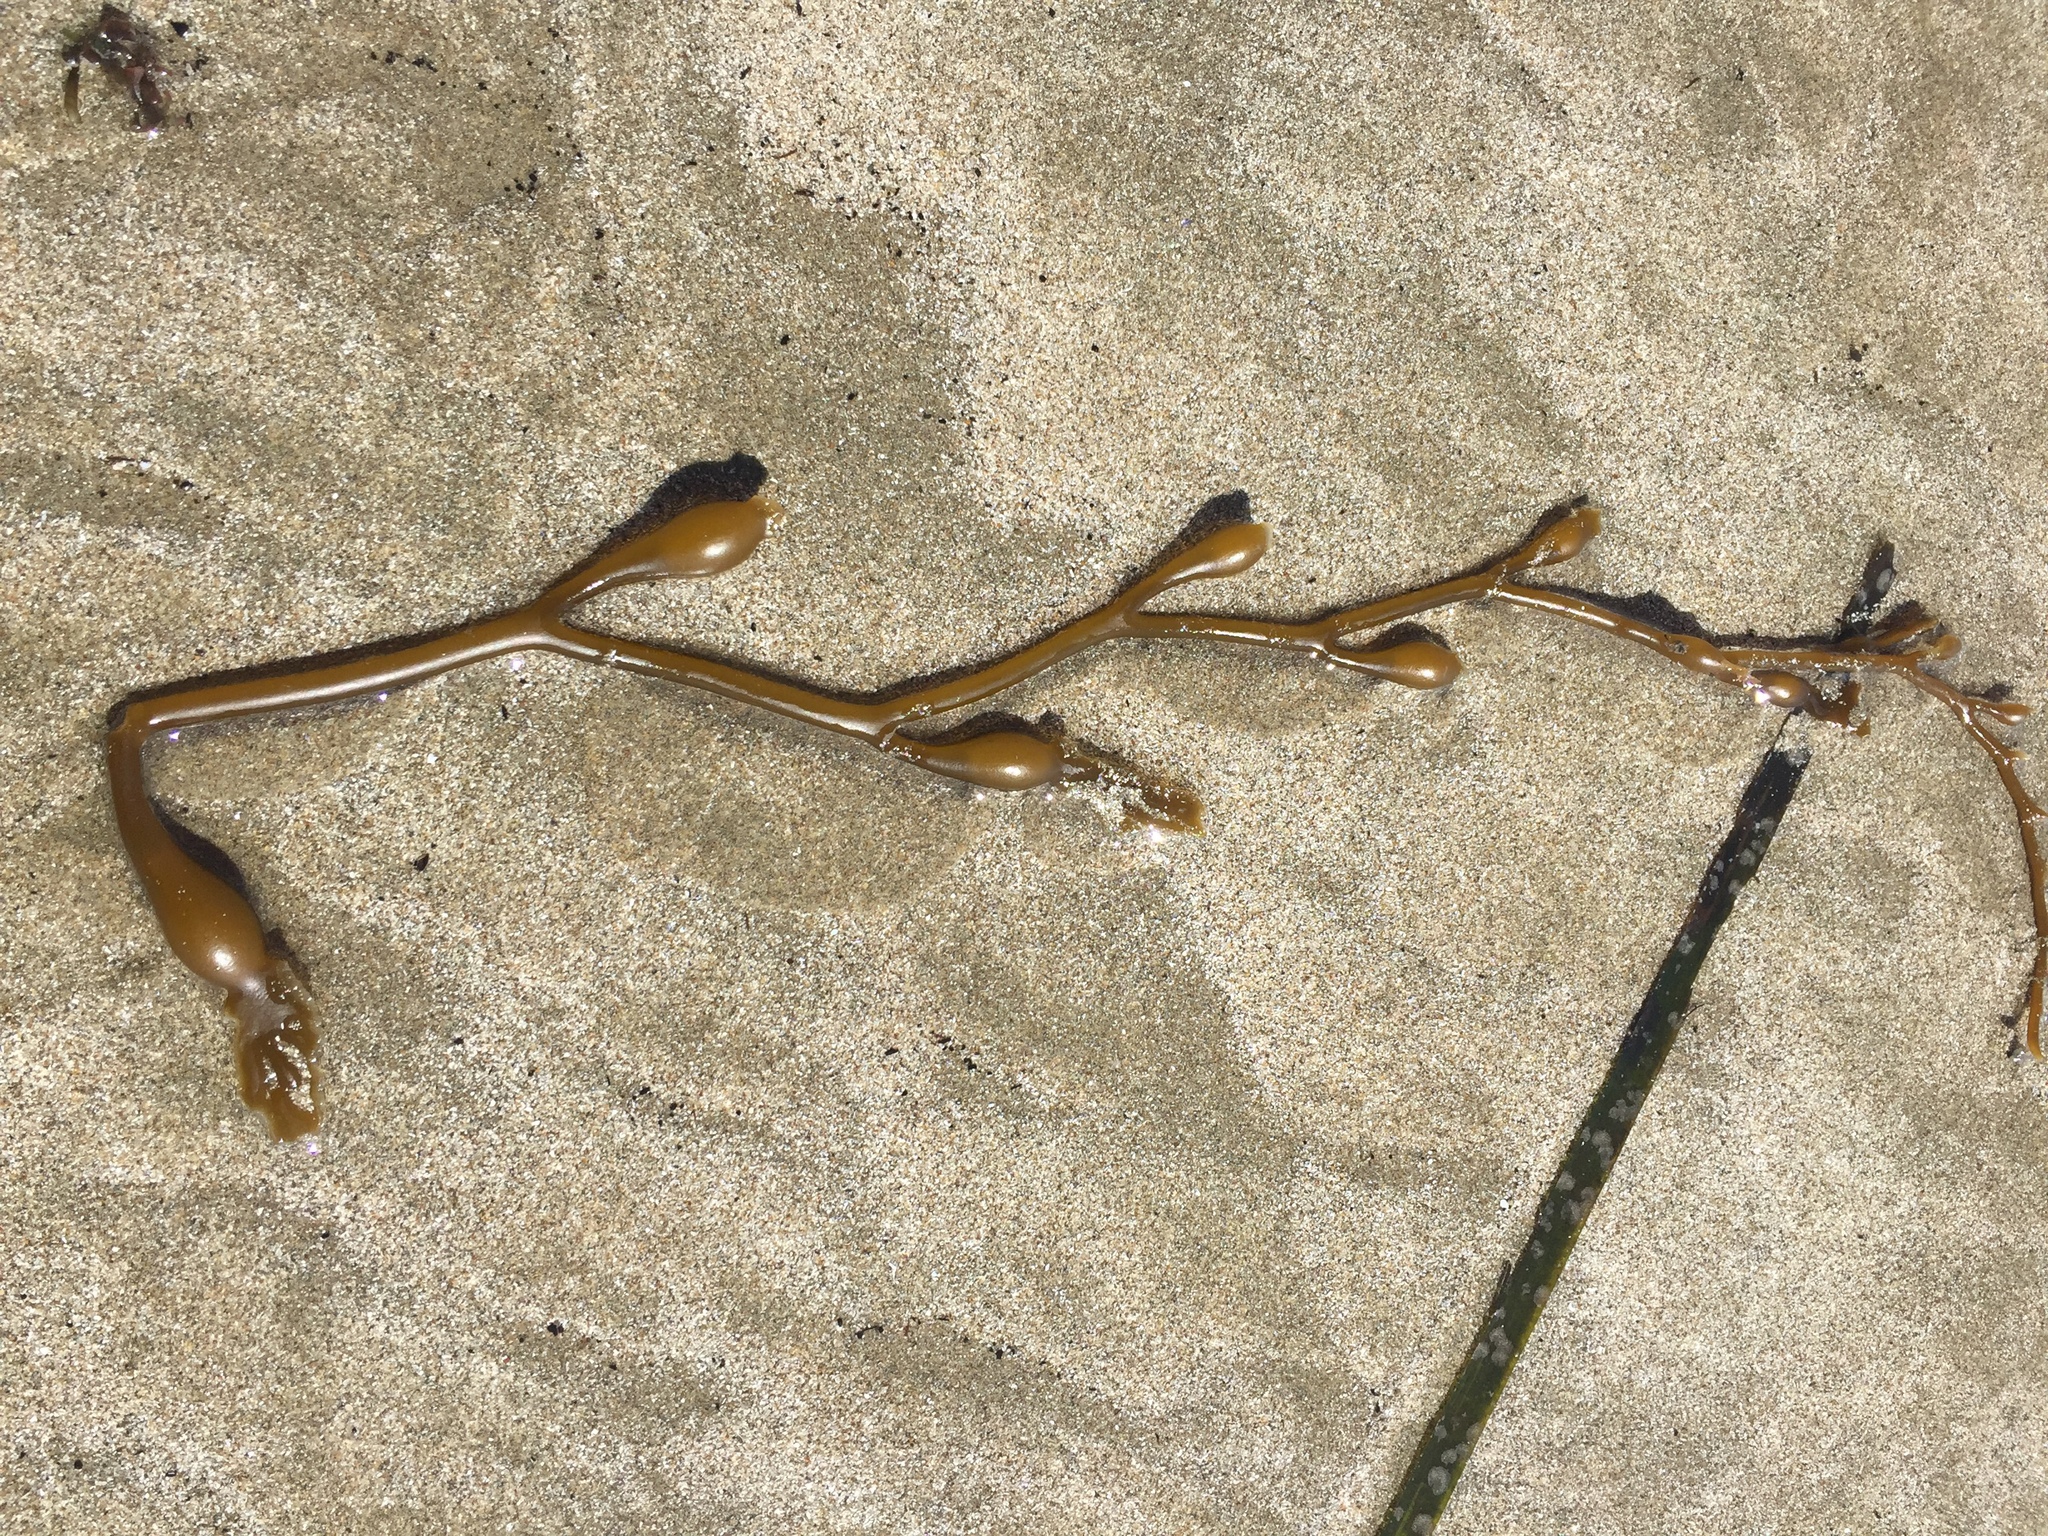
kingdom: Chromista
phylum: Ochrophyta
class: Phaeophyceae
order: Laminariales
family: Laminariaceae
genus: Macrocystis
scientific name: Macrocystis pyrifera
